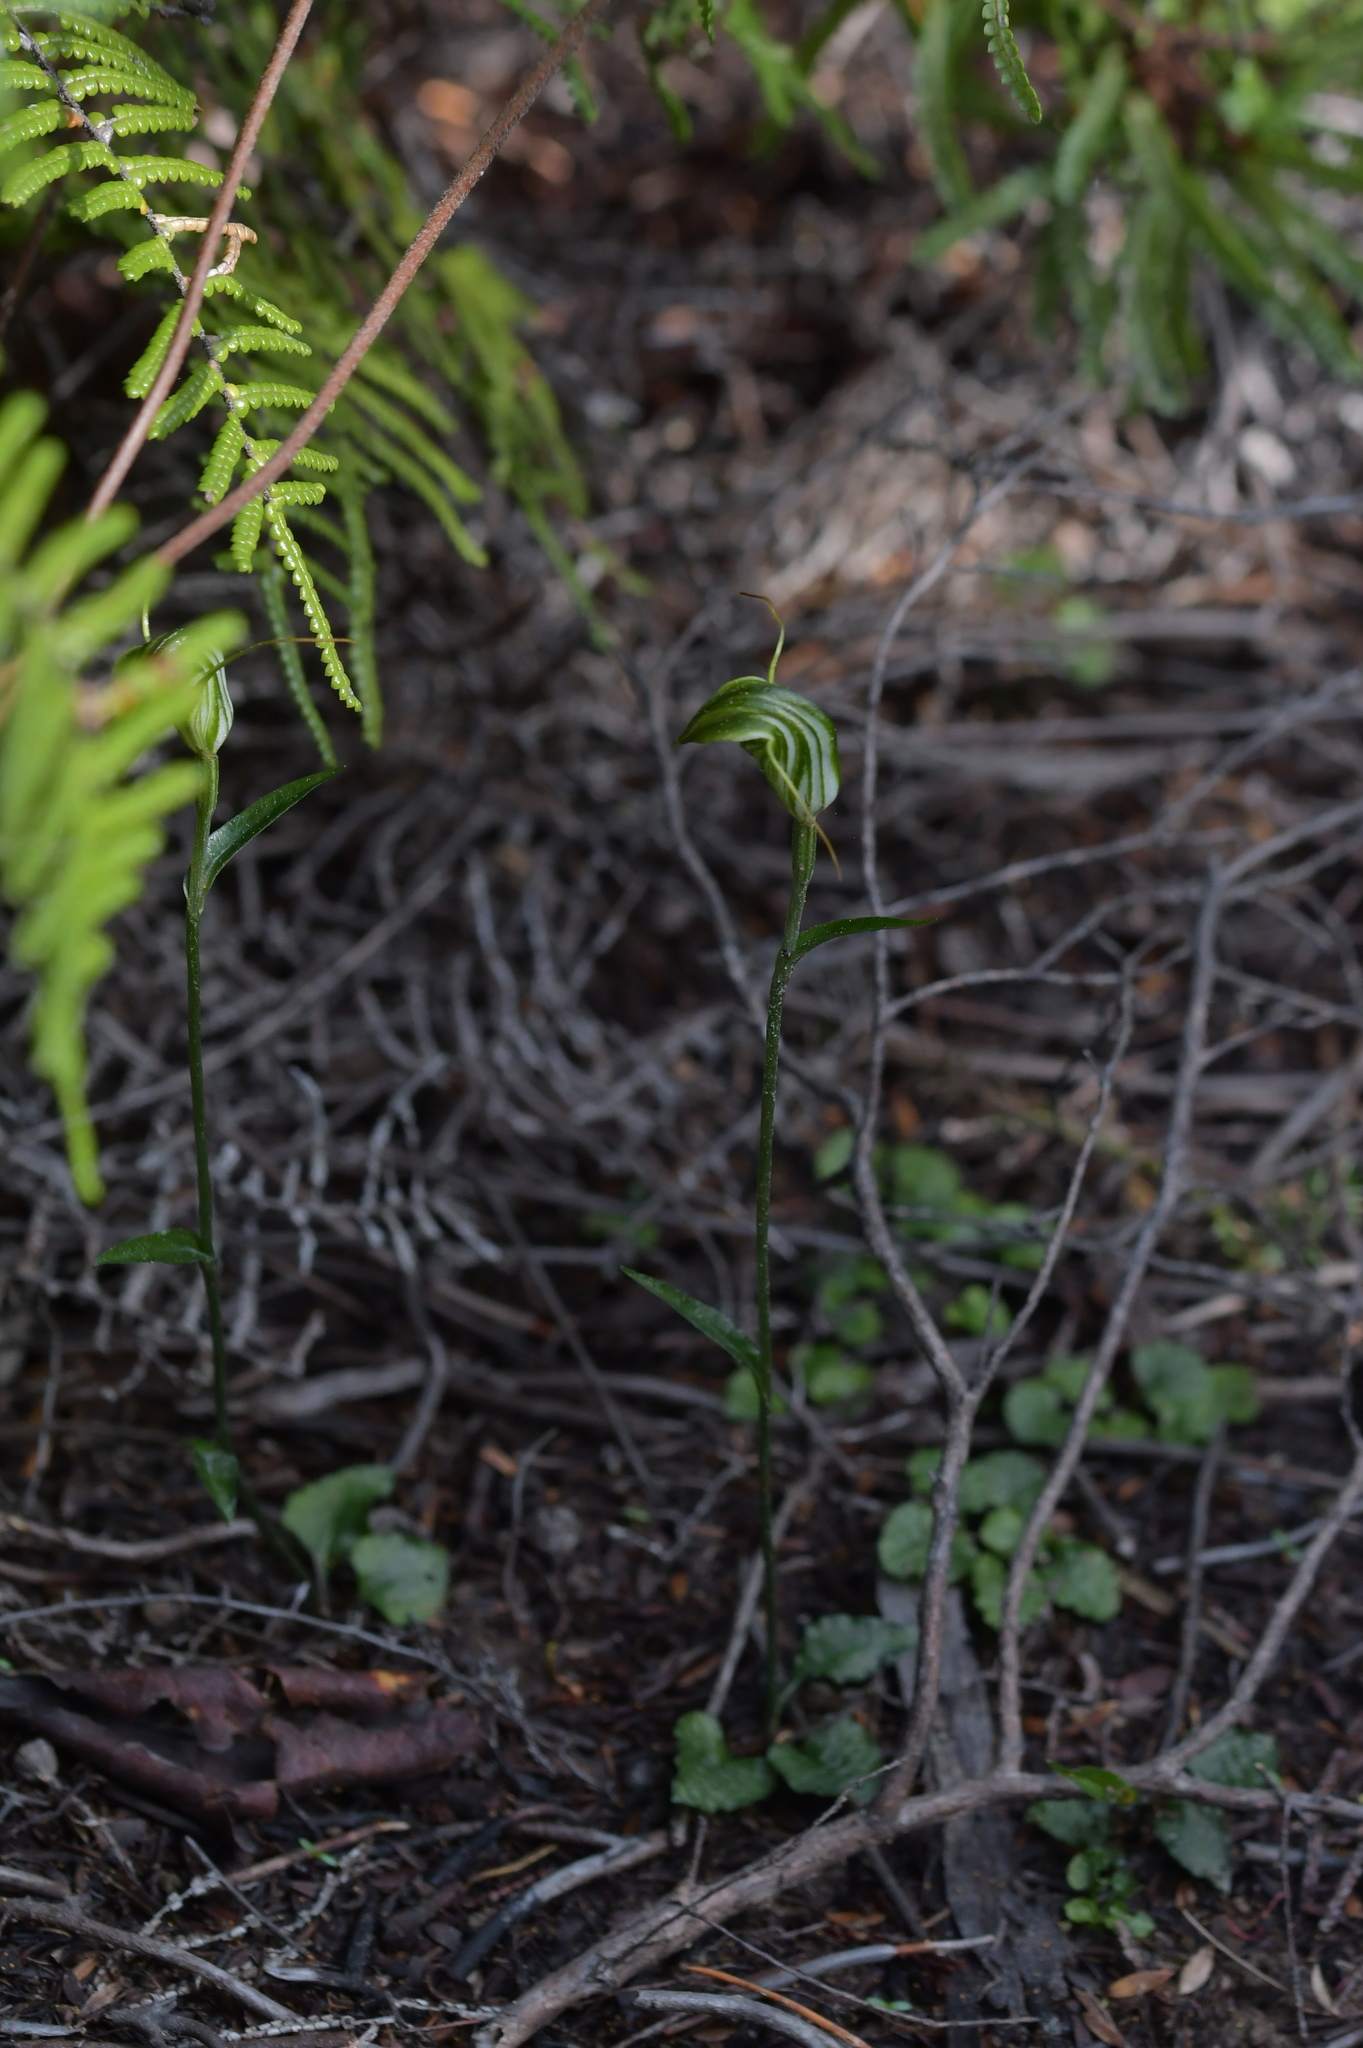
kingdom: Plantae
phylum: Tracheophyta
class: Liliopsida
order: Asparagales
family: Orchidaceae
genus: Pterostylis
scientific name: Pterostylis trullifolia
